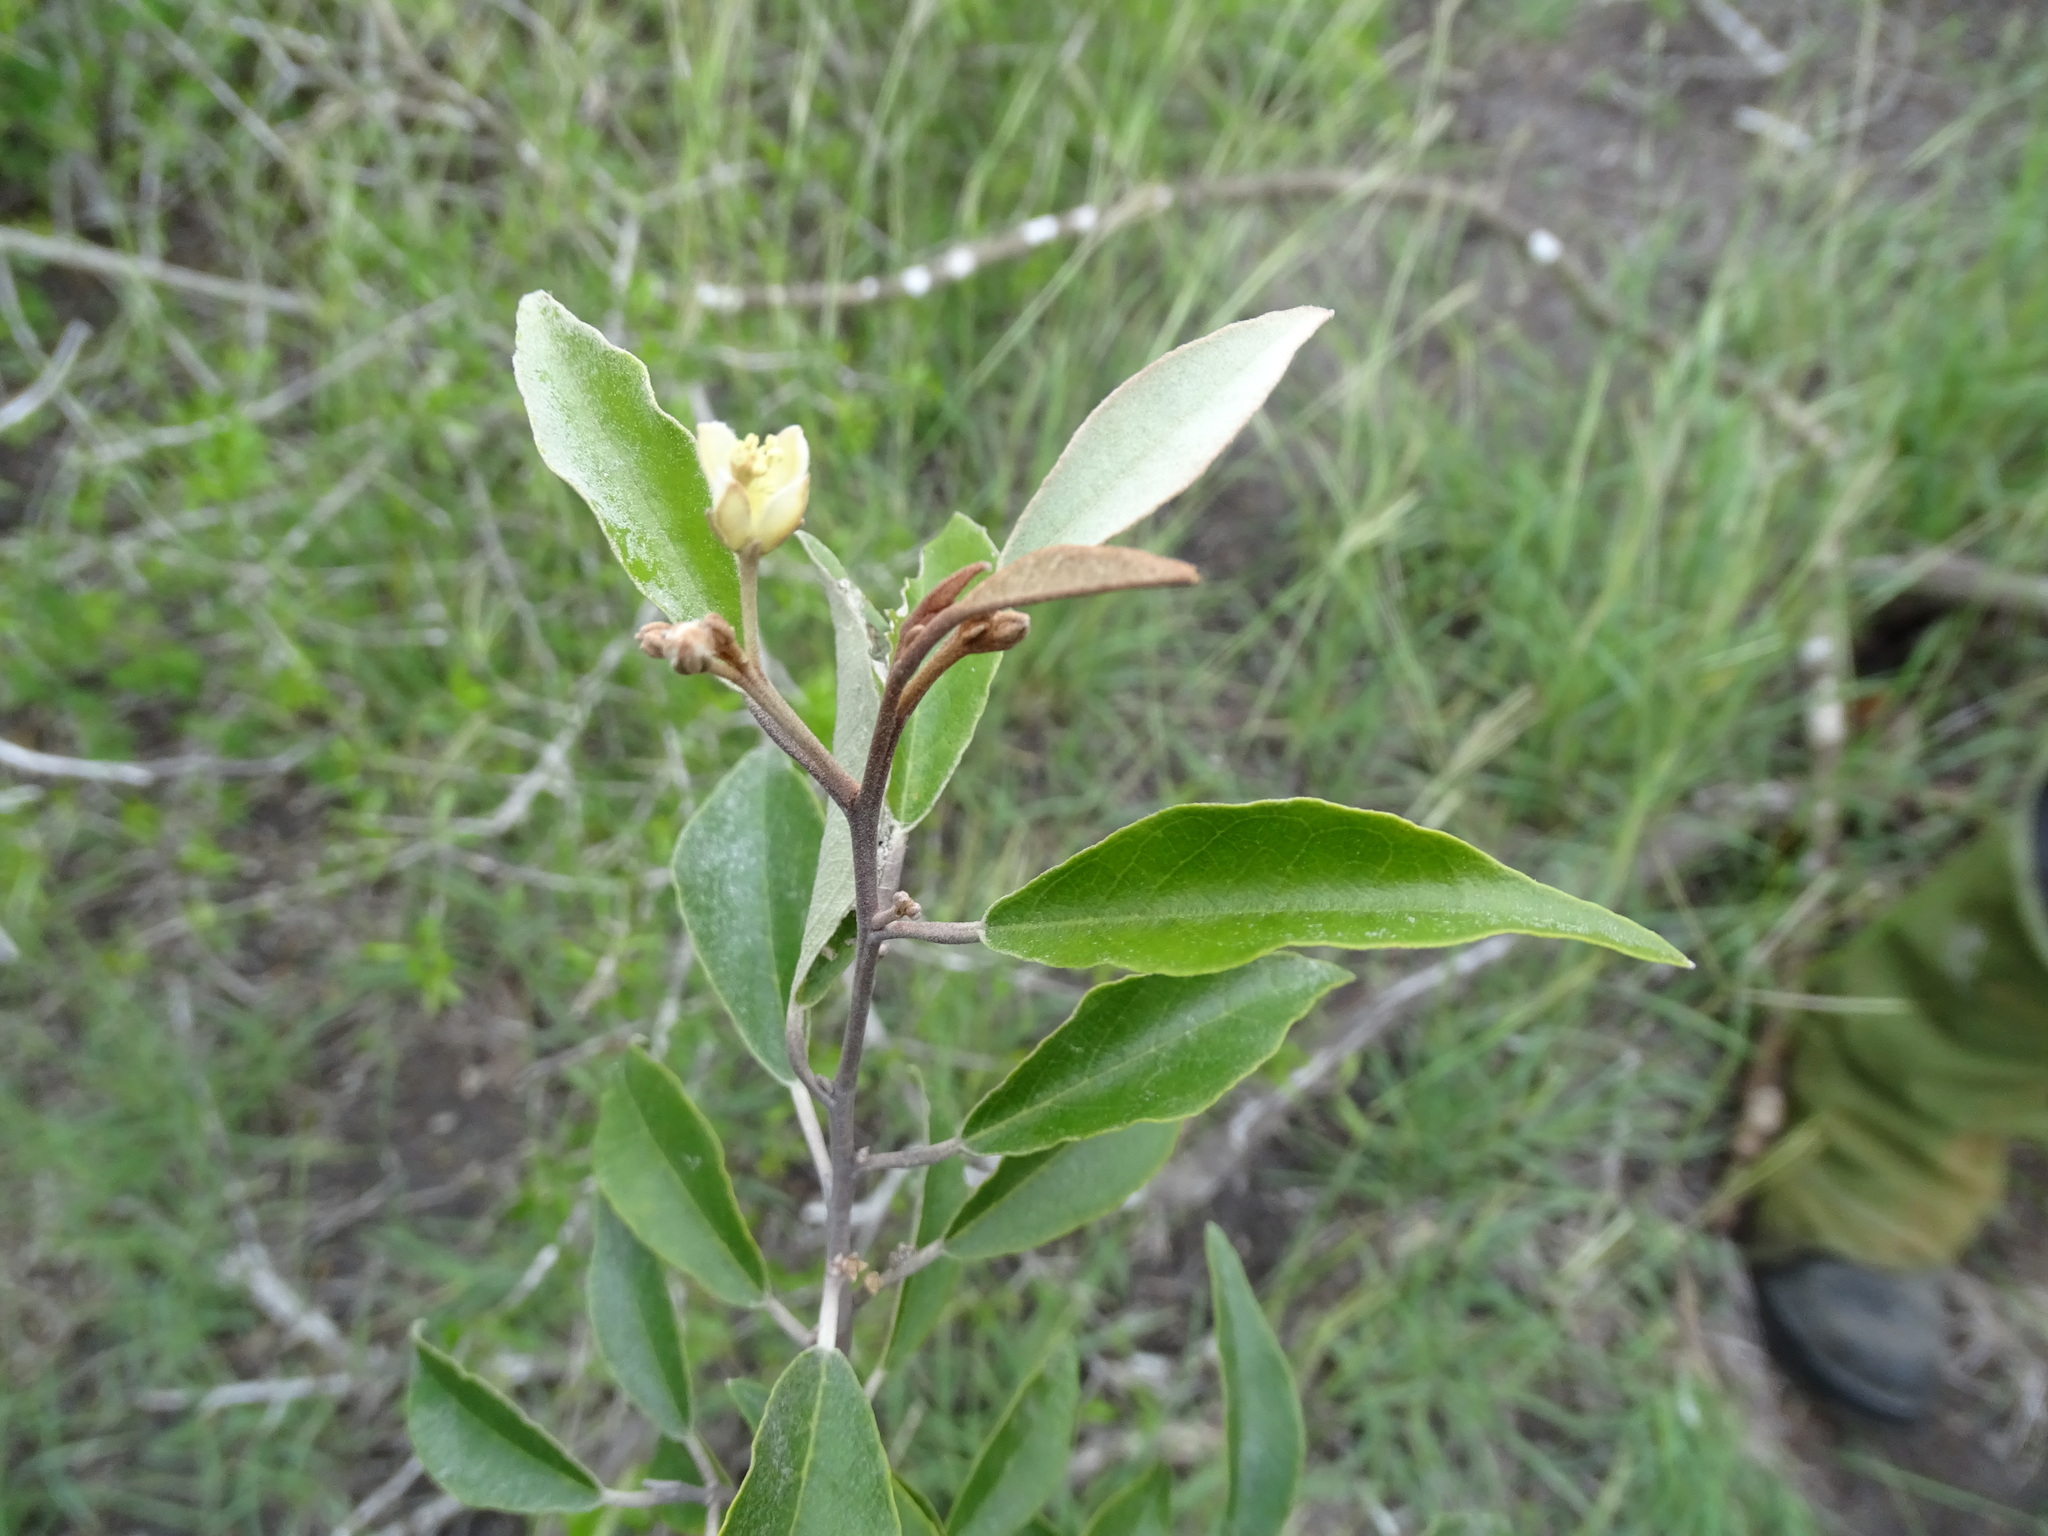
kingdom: Plantae
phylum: Tracheophyta
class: Magnoliopsida
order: Brassicales
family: Capparaceae
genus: Quadrella
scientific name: Quadrella incana
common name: Hoary caper
